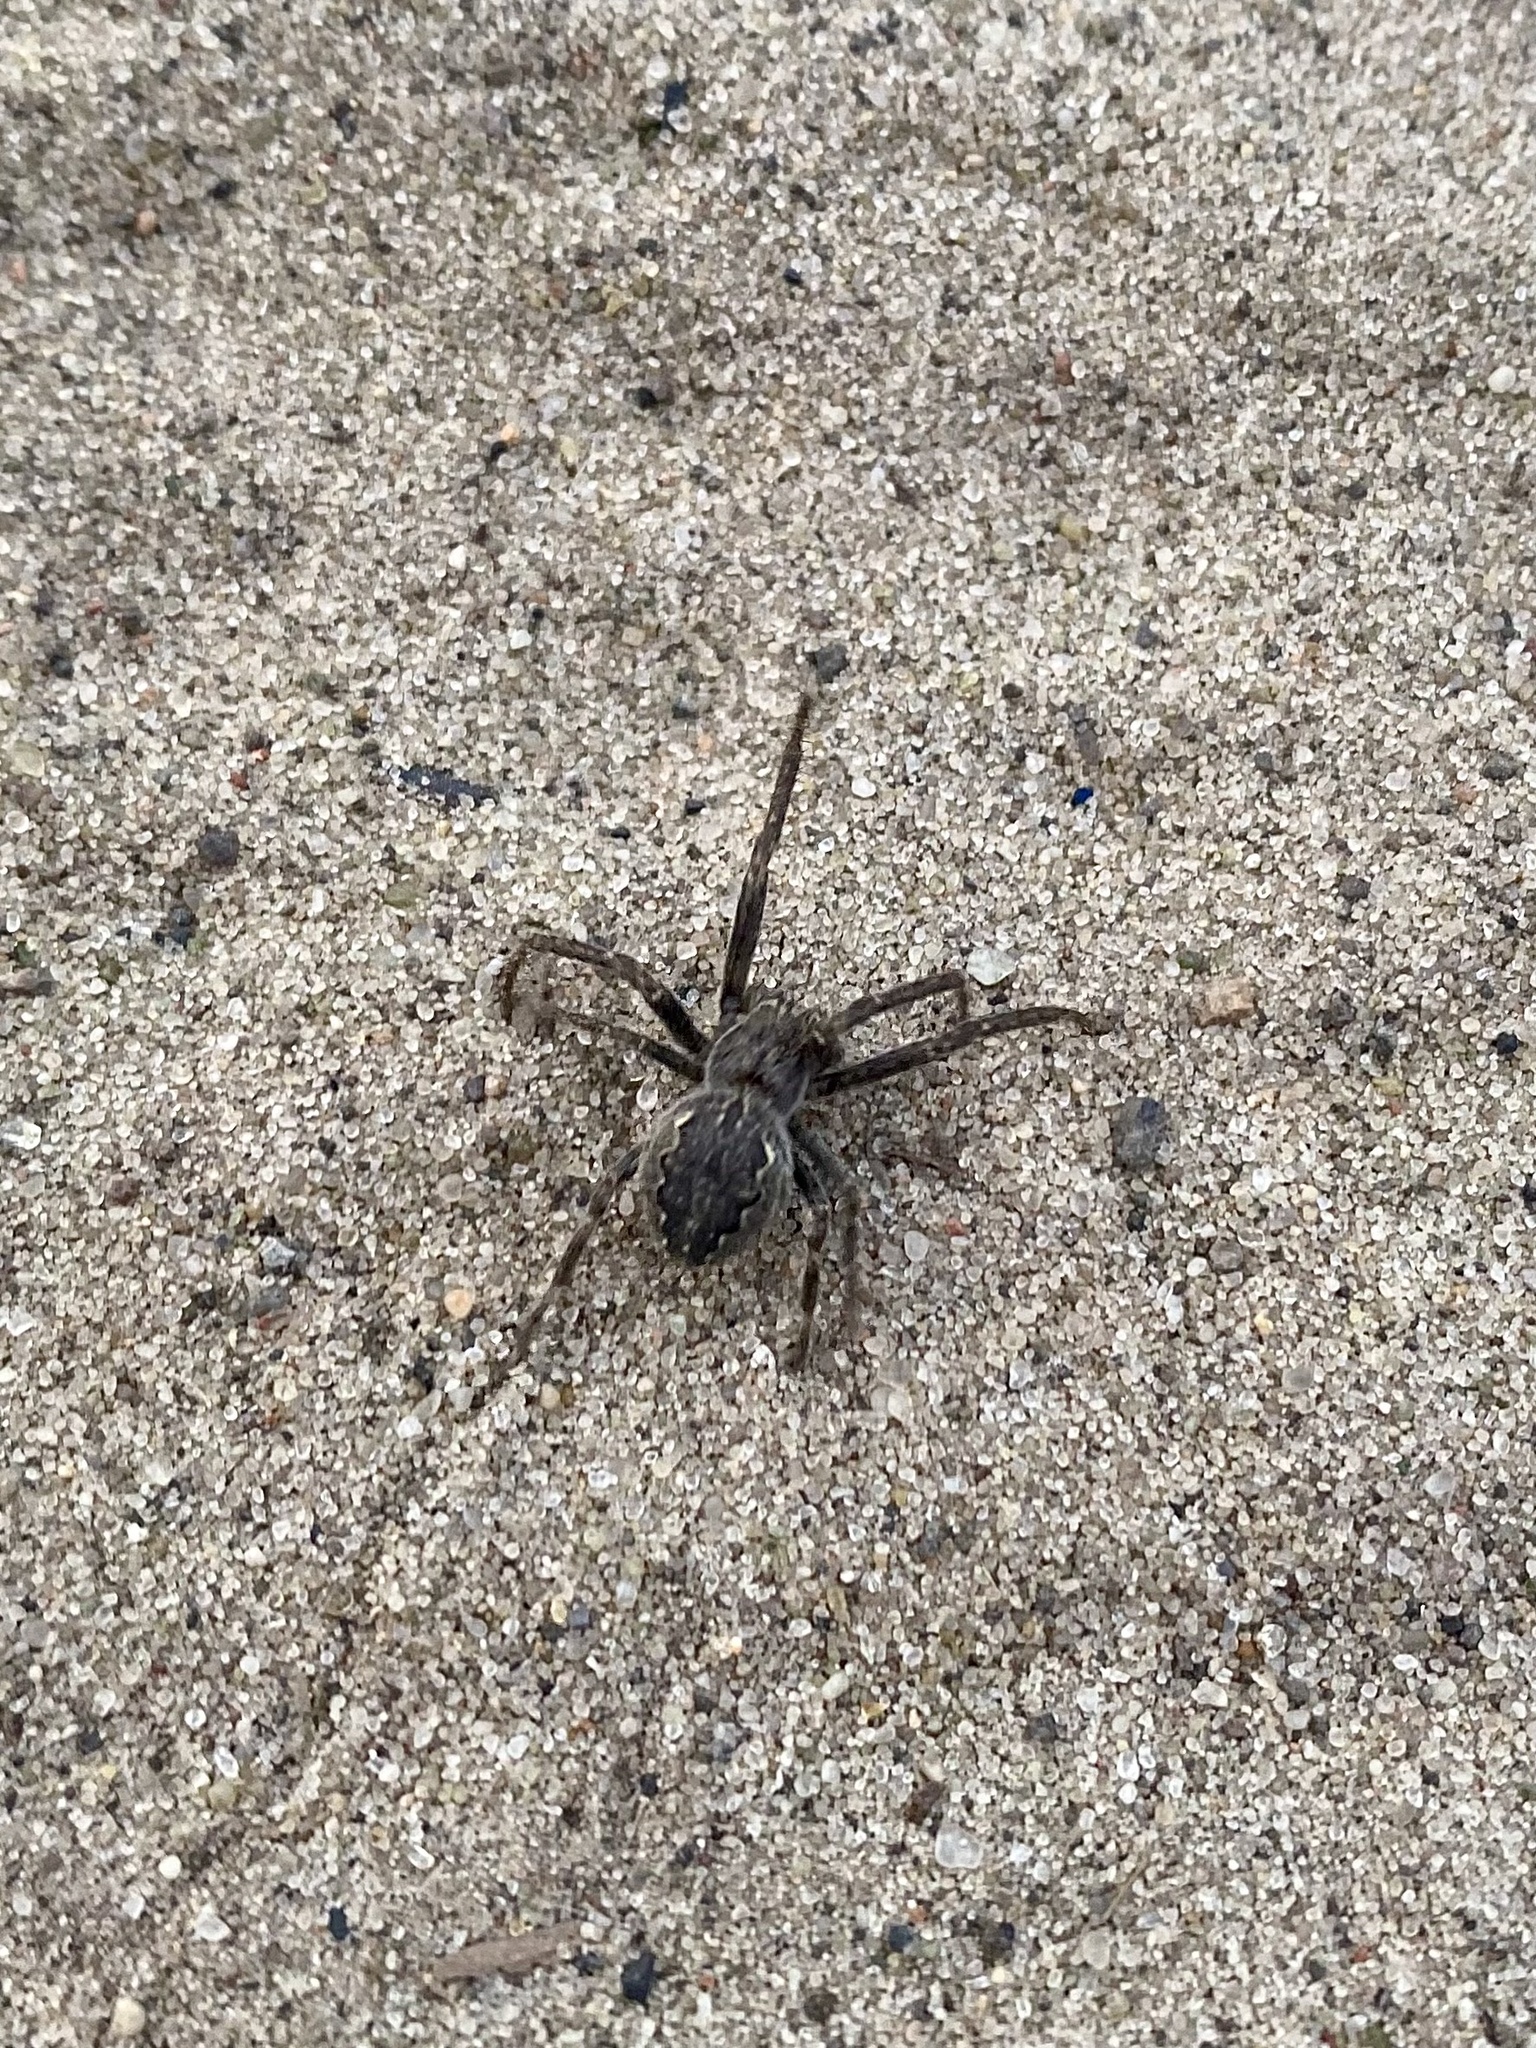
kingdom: Animalia
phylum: Arthropoda
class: Arachnida
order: Araneae
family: Araneidae
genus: Larinioides
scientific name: Larinioides ixobolus
